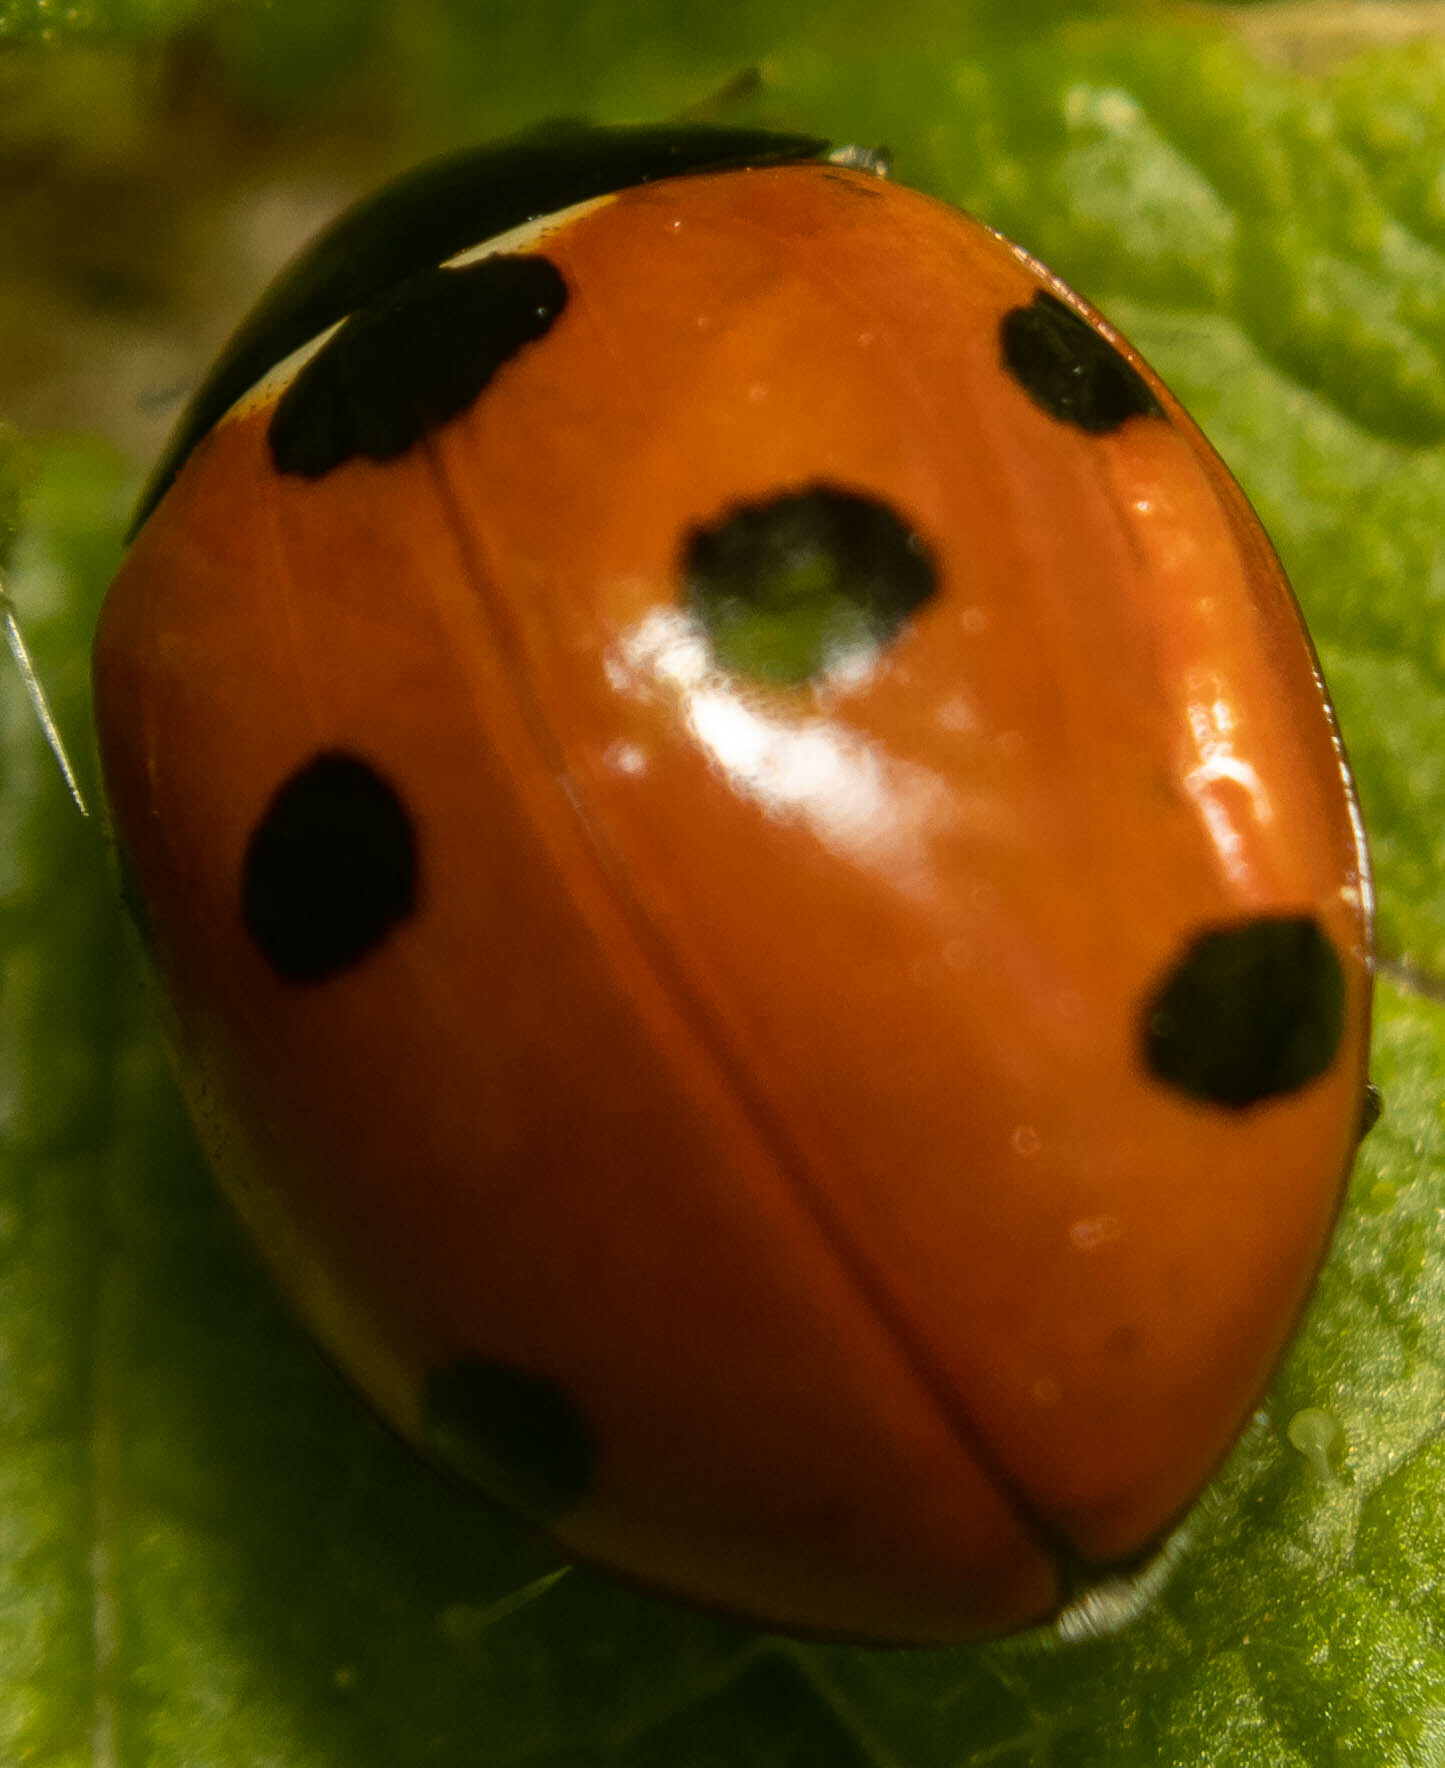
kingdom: Animalia
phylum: Arthropoda
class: Insecta
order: Coleoptera
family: Coccinellidae
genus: Coccinella
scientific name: Coccinella septempunctata
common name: Sevenspotted lady beetle
